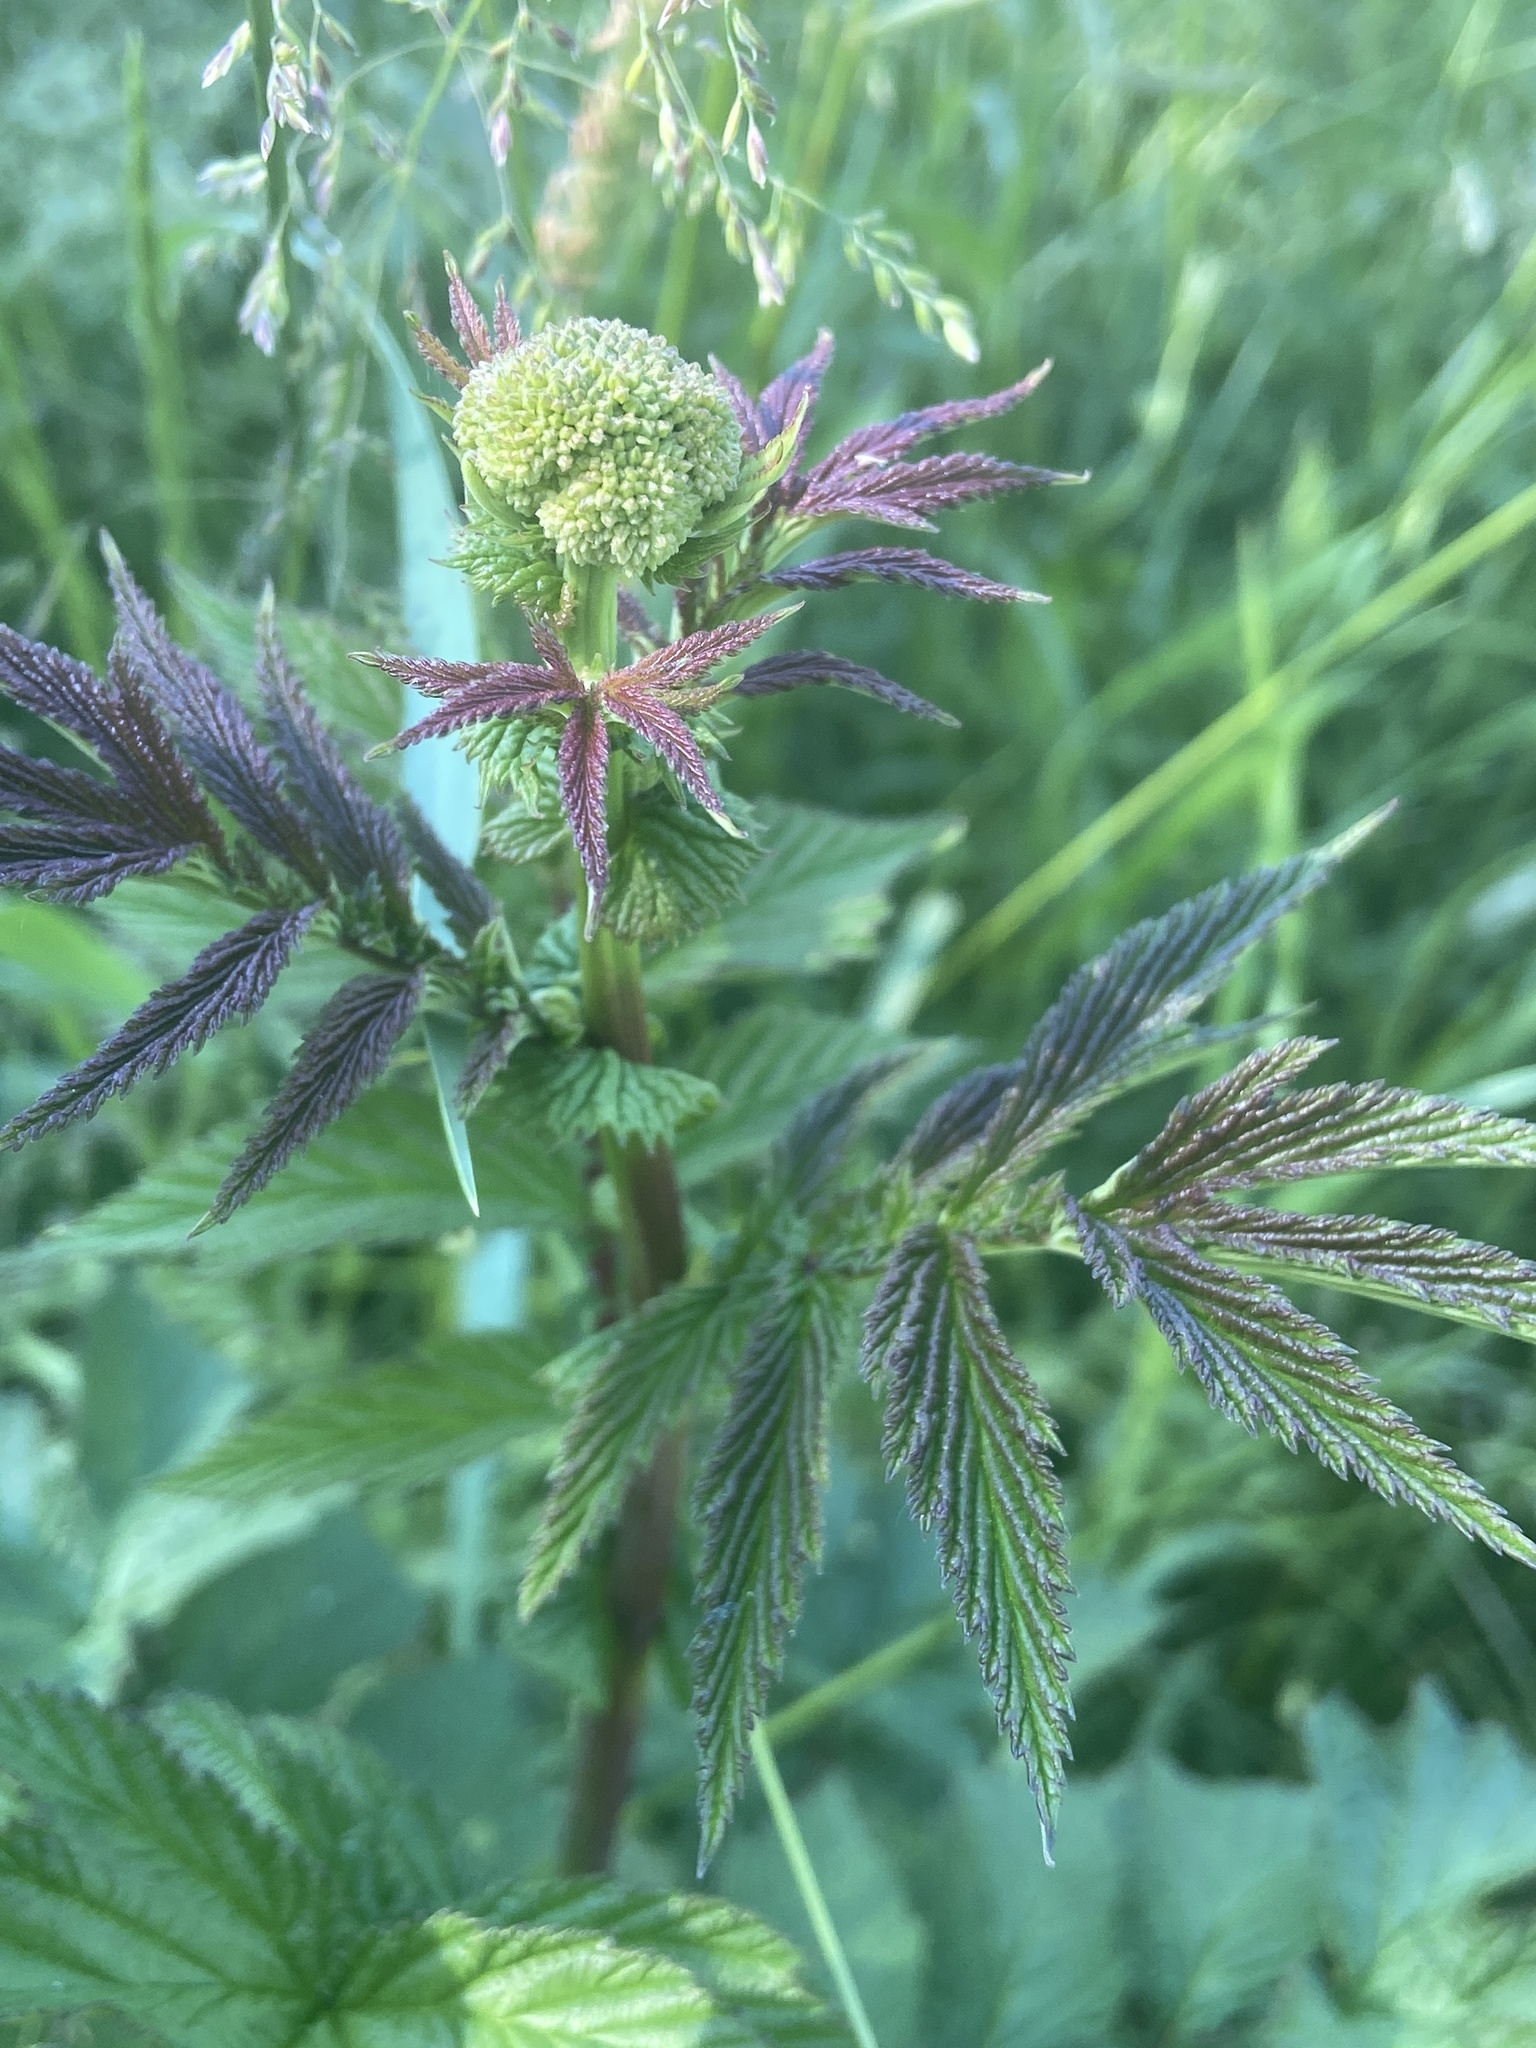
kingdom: Plantae
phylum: Tracheophyta
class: Magnoliopsida
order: Rosales
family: Rosaceae
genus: Filipendula
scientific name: Filipendula ulmaria
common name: Meadowsweet
